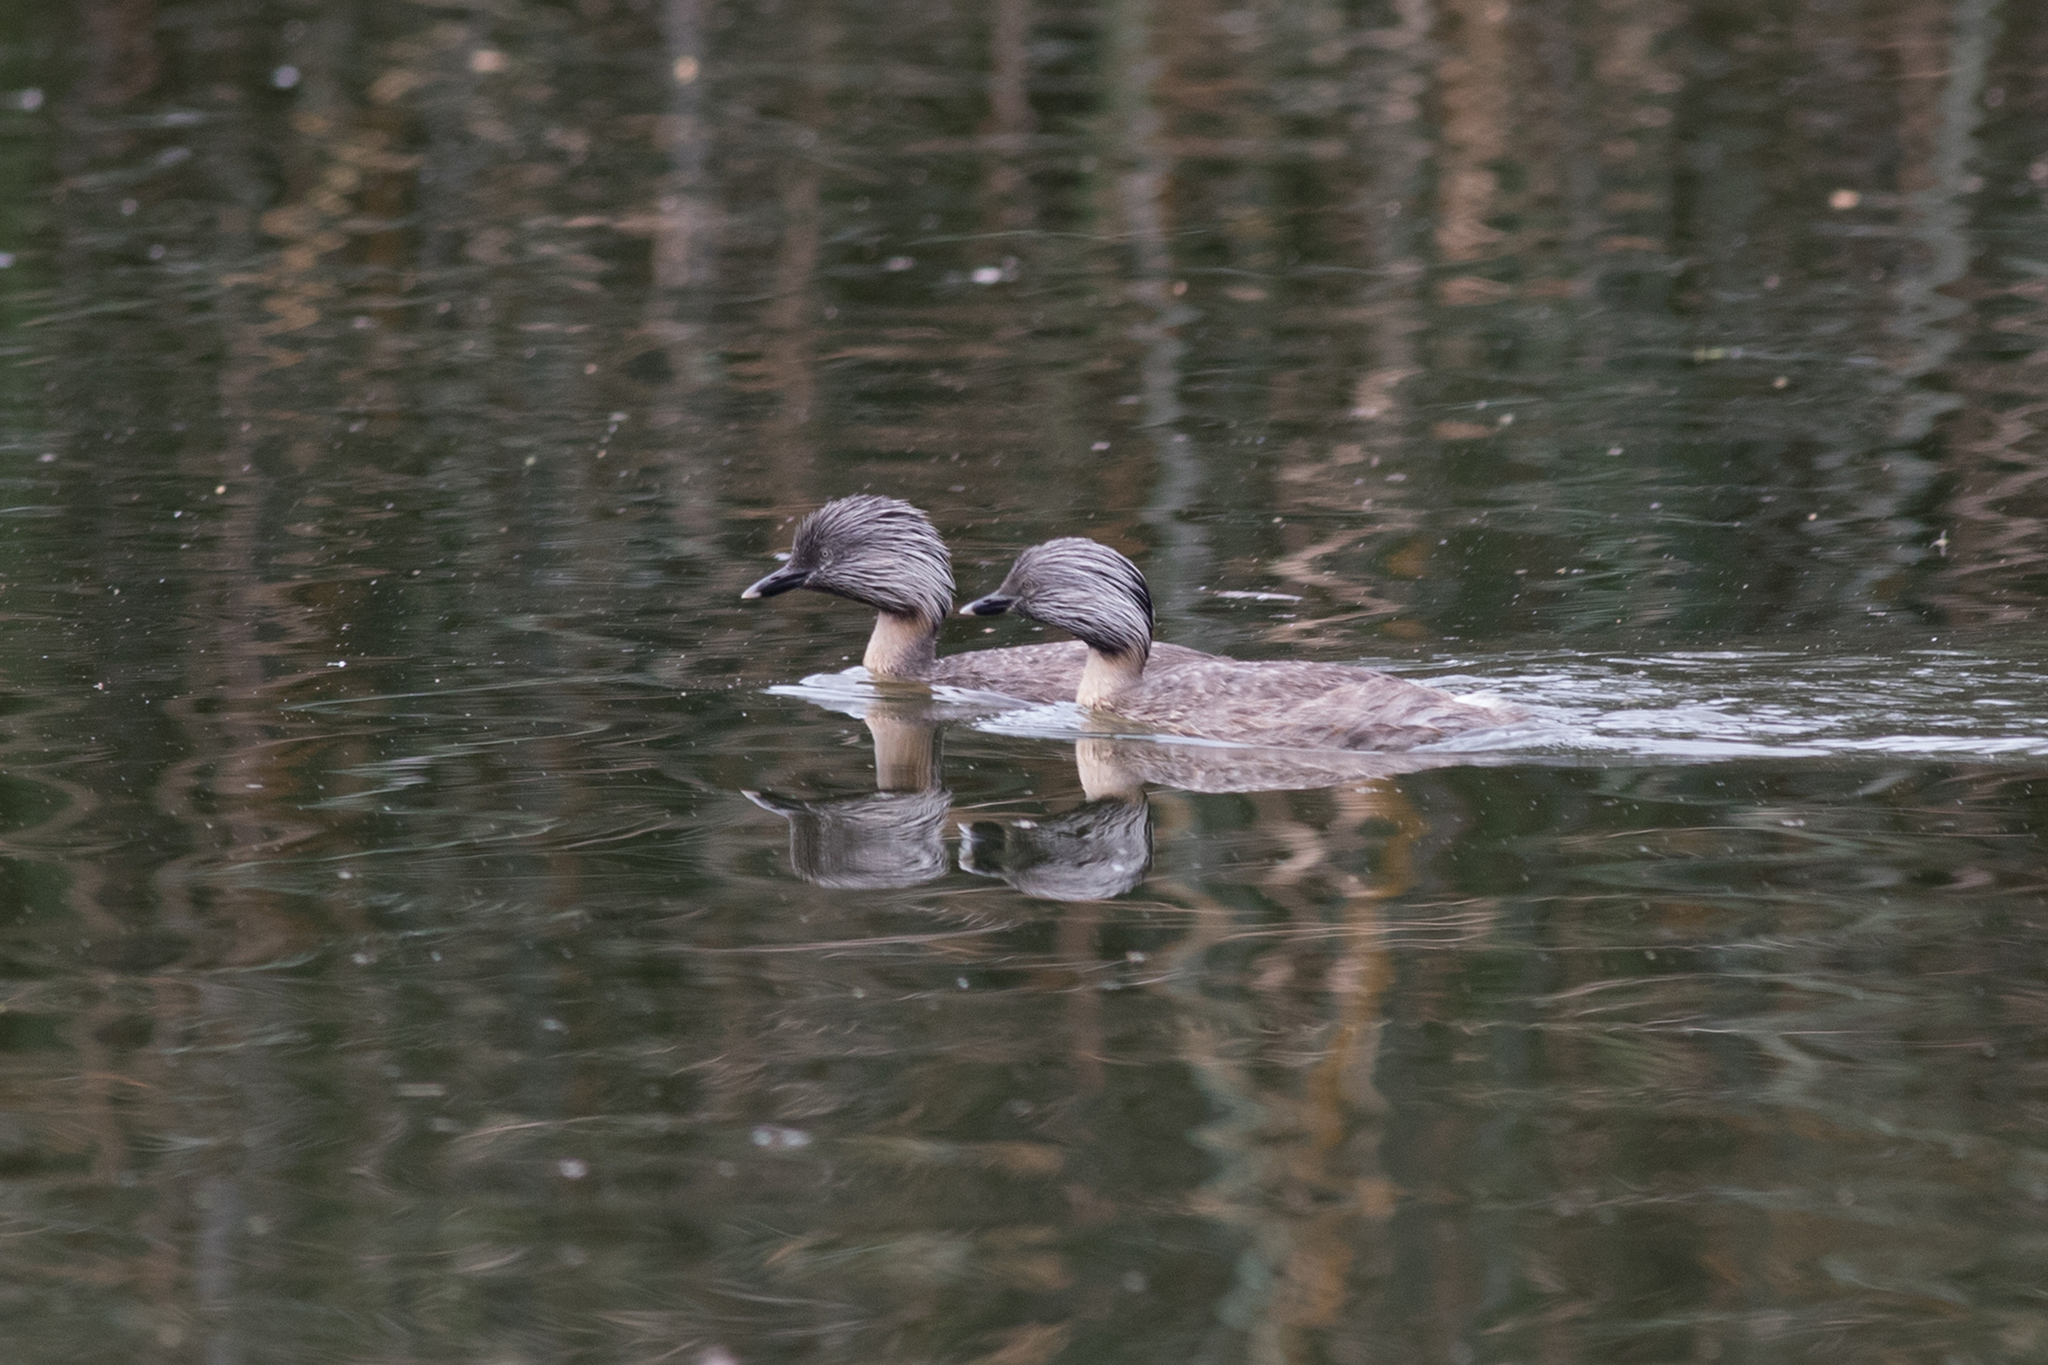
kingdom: Animalia
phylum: Chordata
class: Aves
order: Podicipediformes
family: Podicipedidae
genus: Poliocephalus
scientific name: Poliocephalus poliocephalus
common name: Hoary-headed grebe
